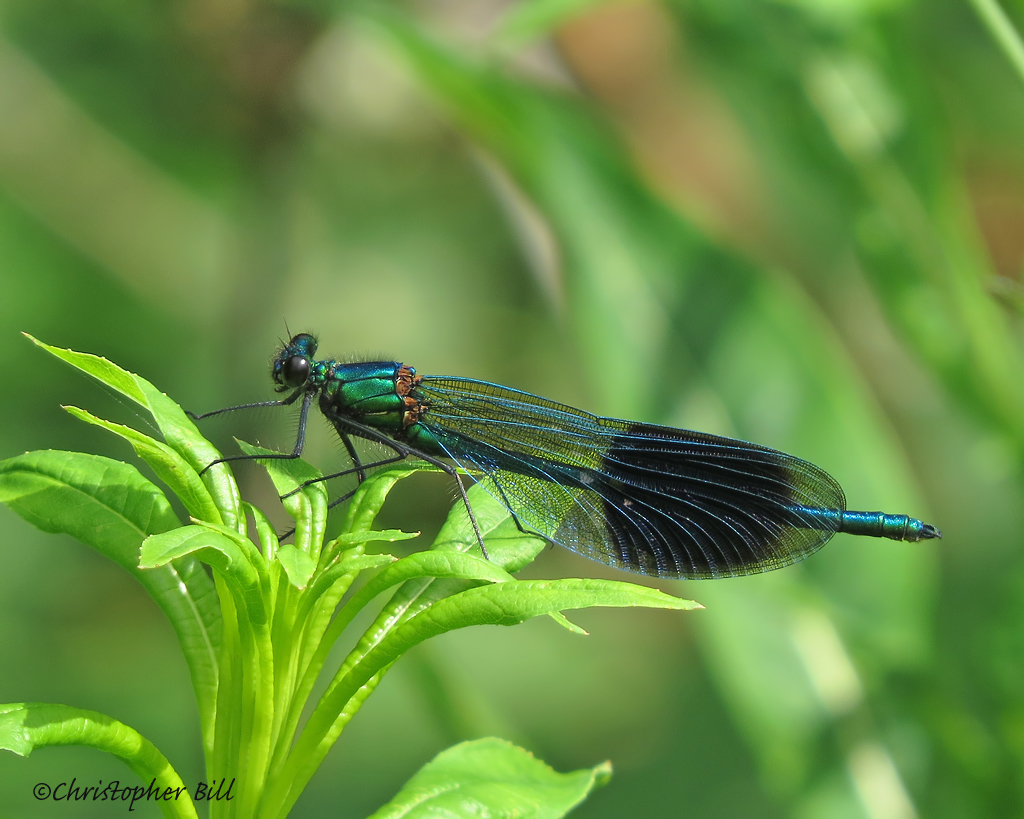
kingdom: Animalia
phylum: Arthropoda
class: Insecta
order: Odonata
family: Calopterygidae
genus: Calopteryx
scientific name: Calopteryx splendens
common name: Banded demoiselle
